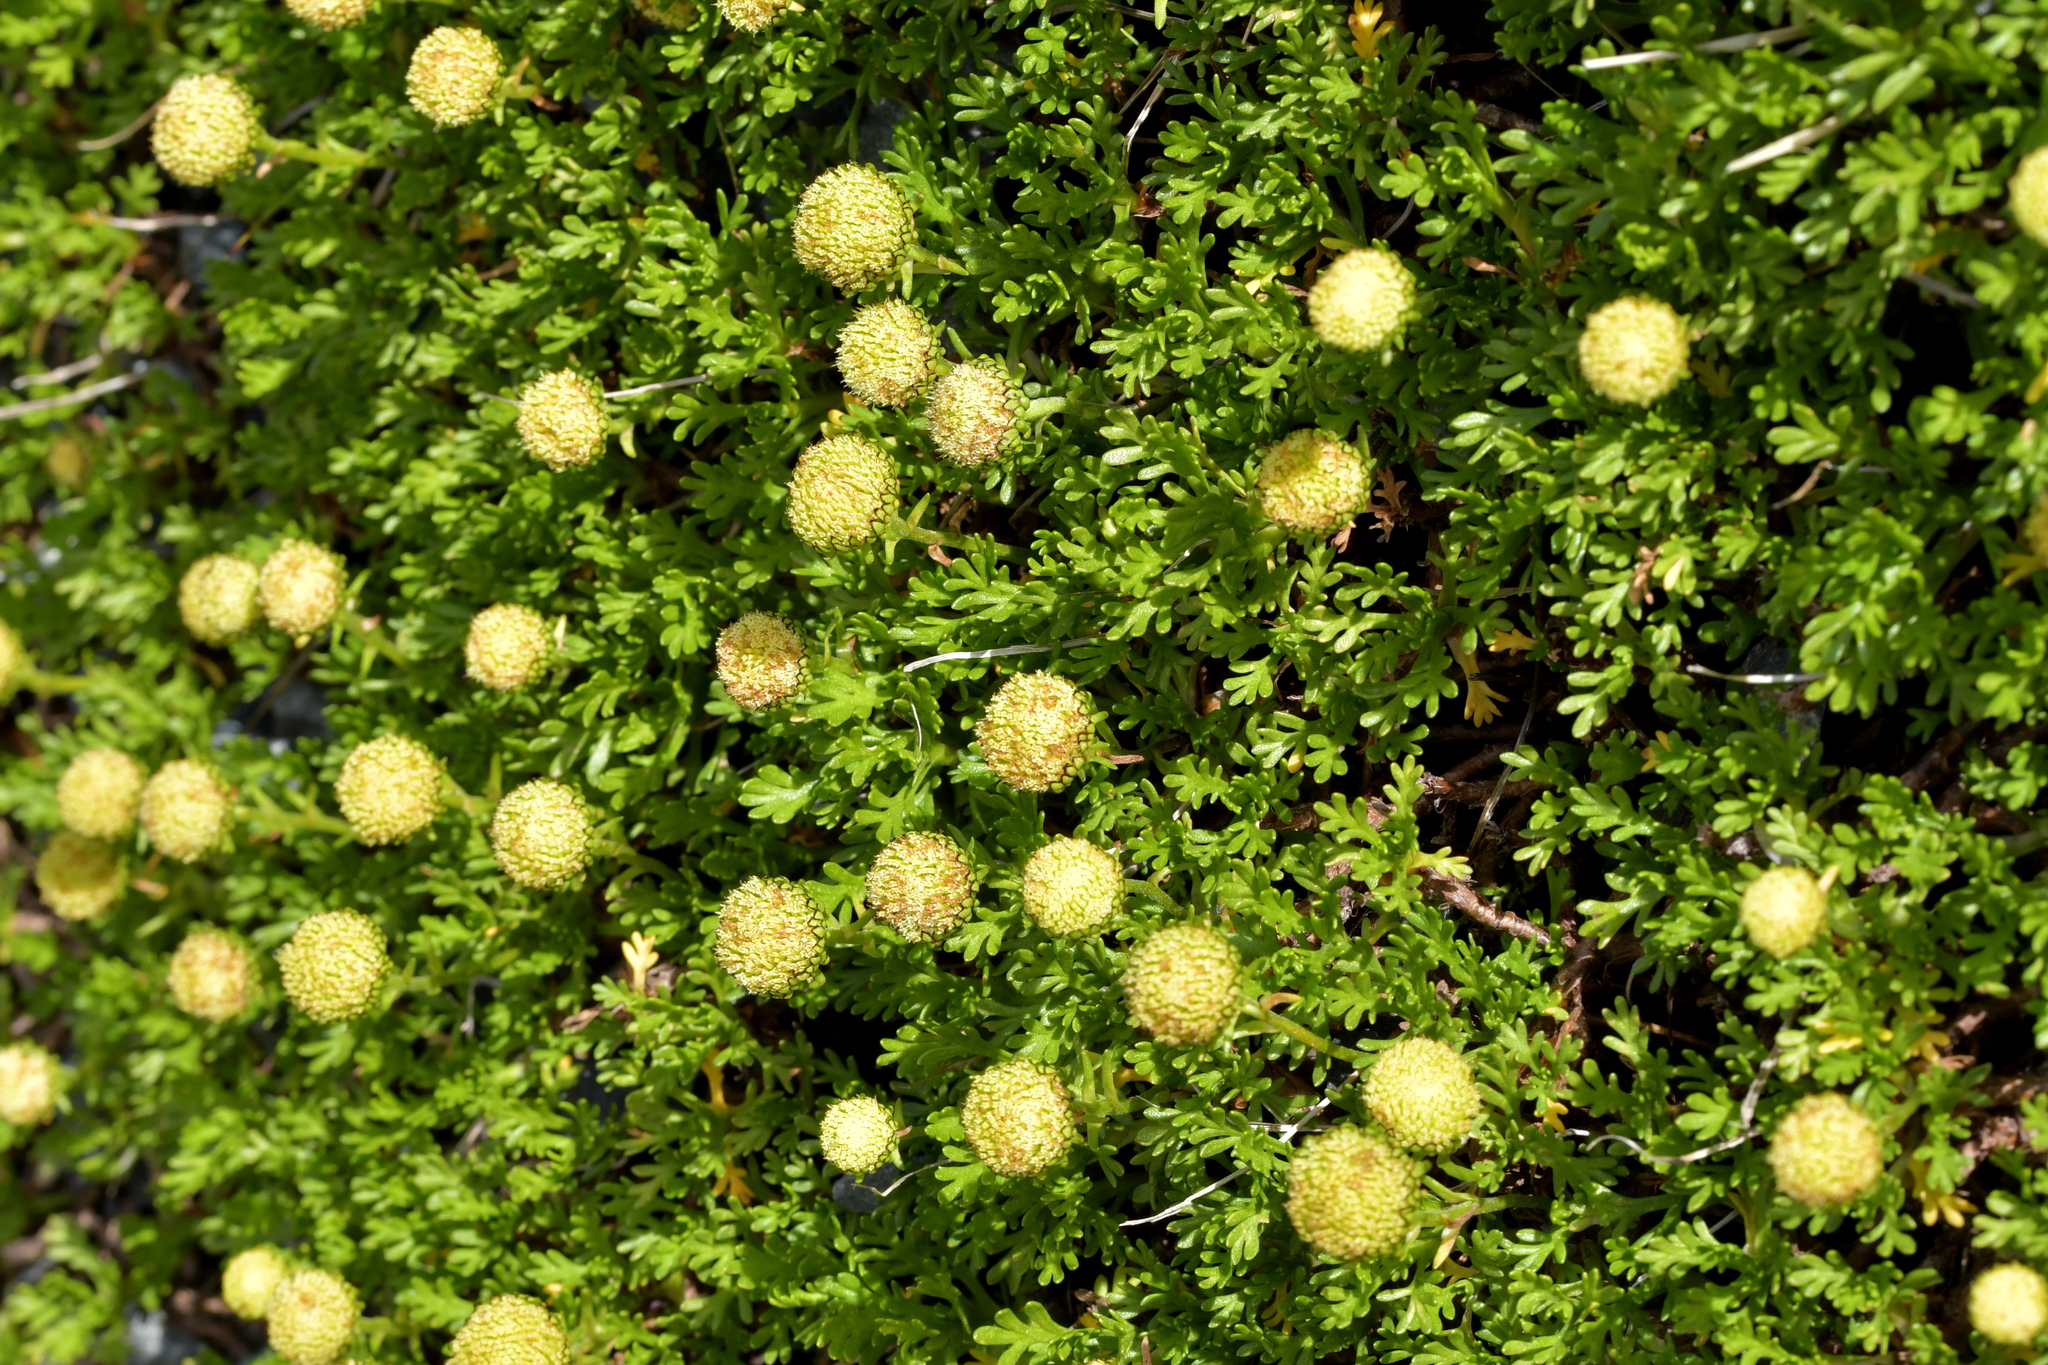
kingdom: Plantae
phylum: Tracheophyta
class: Magnoliopsida
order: Asterales
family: Asteraceae
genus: Leptinella
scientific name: Leptinella pyrethrifolia
